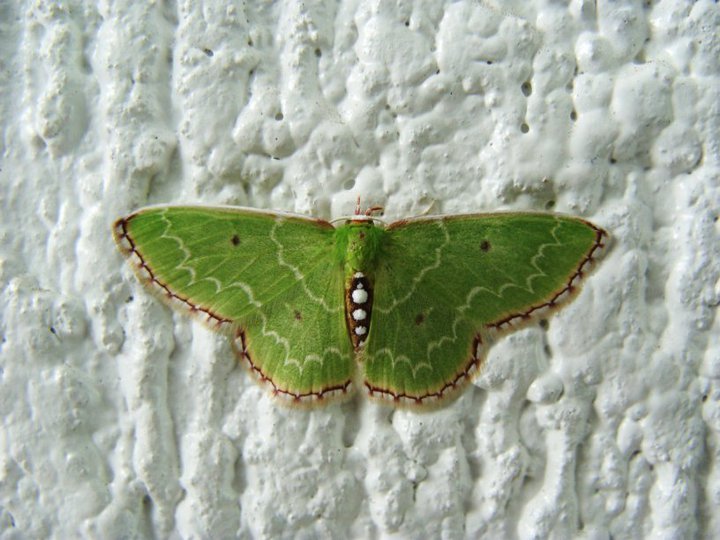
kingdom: Animalia
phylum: Arthropoda
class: Insecta
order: Lepidoptera
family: Geometridae
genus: Nemoria
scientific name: Nemoria lixaria
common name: Red-bordered emerald
